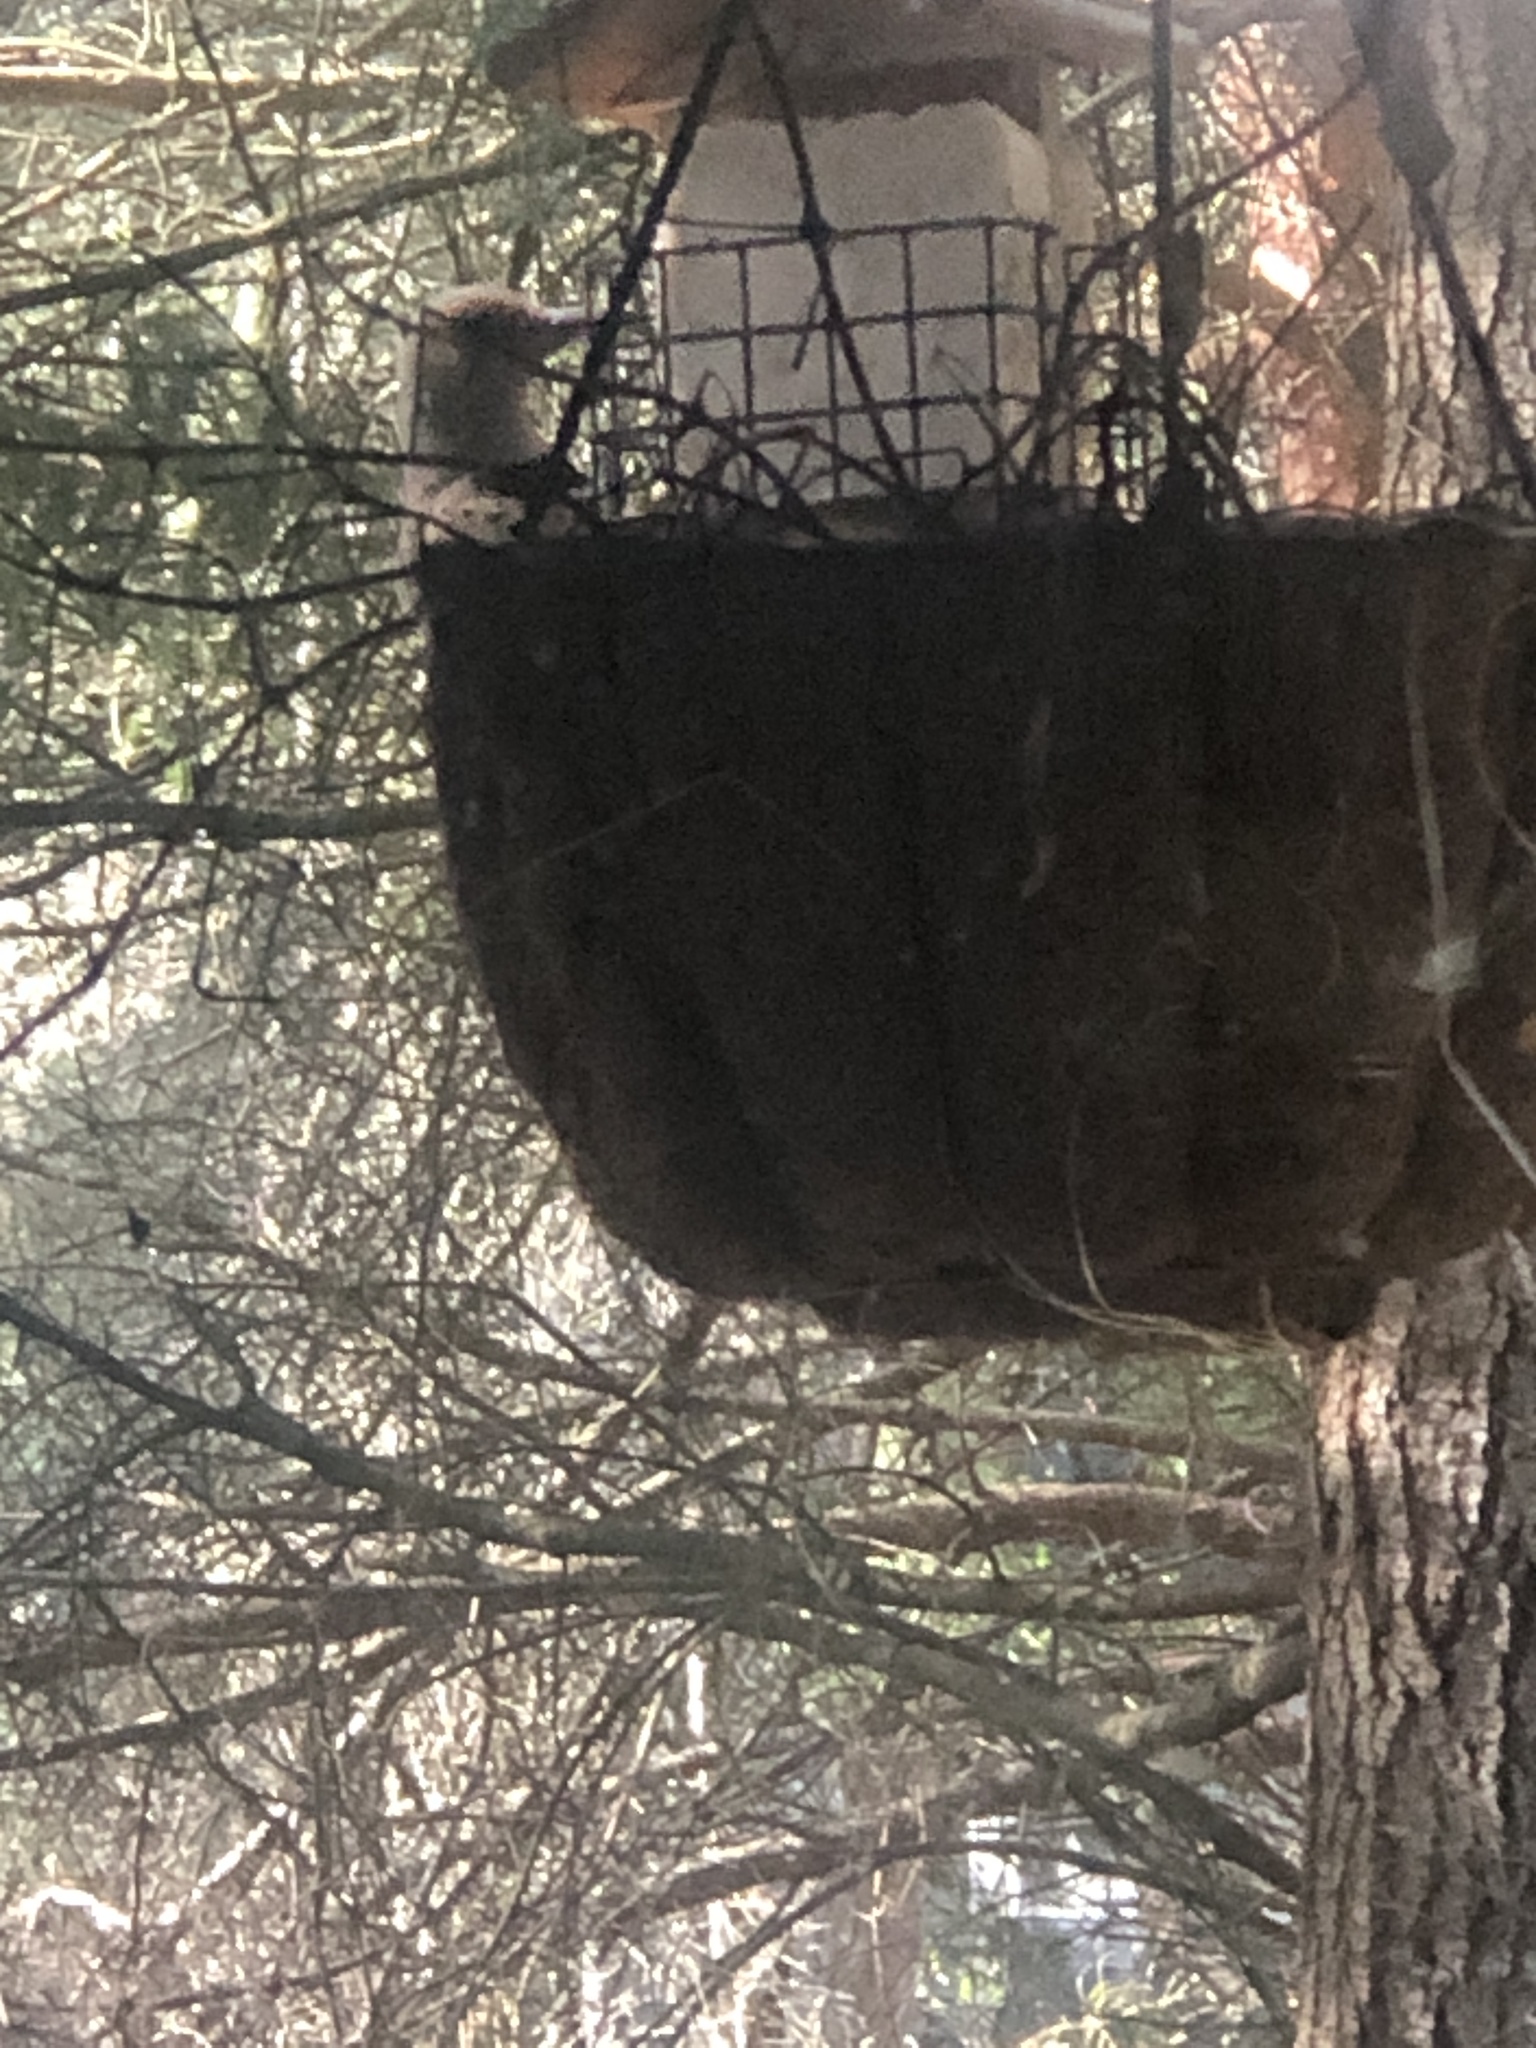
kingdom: Animalia
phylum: Chordata
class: Aves
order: Piciformes
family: Picidae
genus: Colaptes
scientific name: Colaptes auratus
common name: Northern flicker
